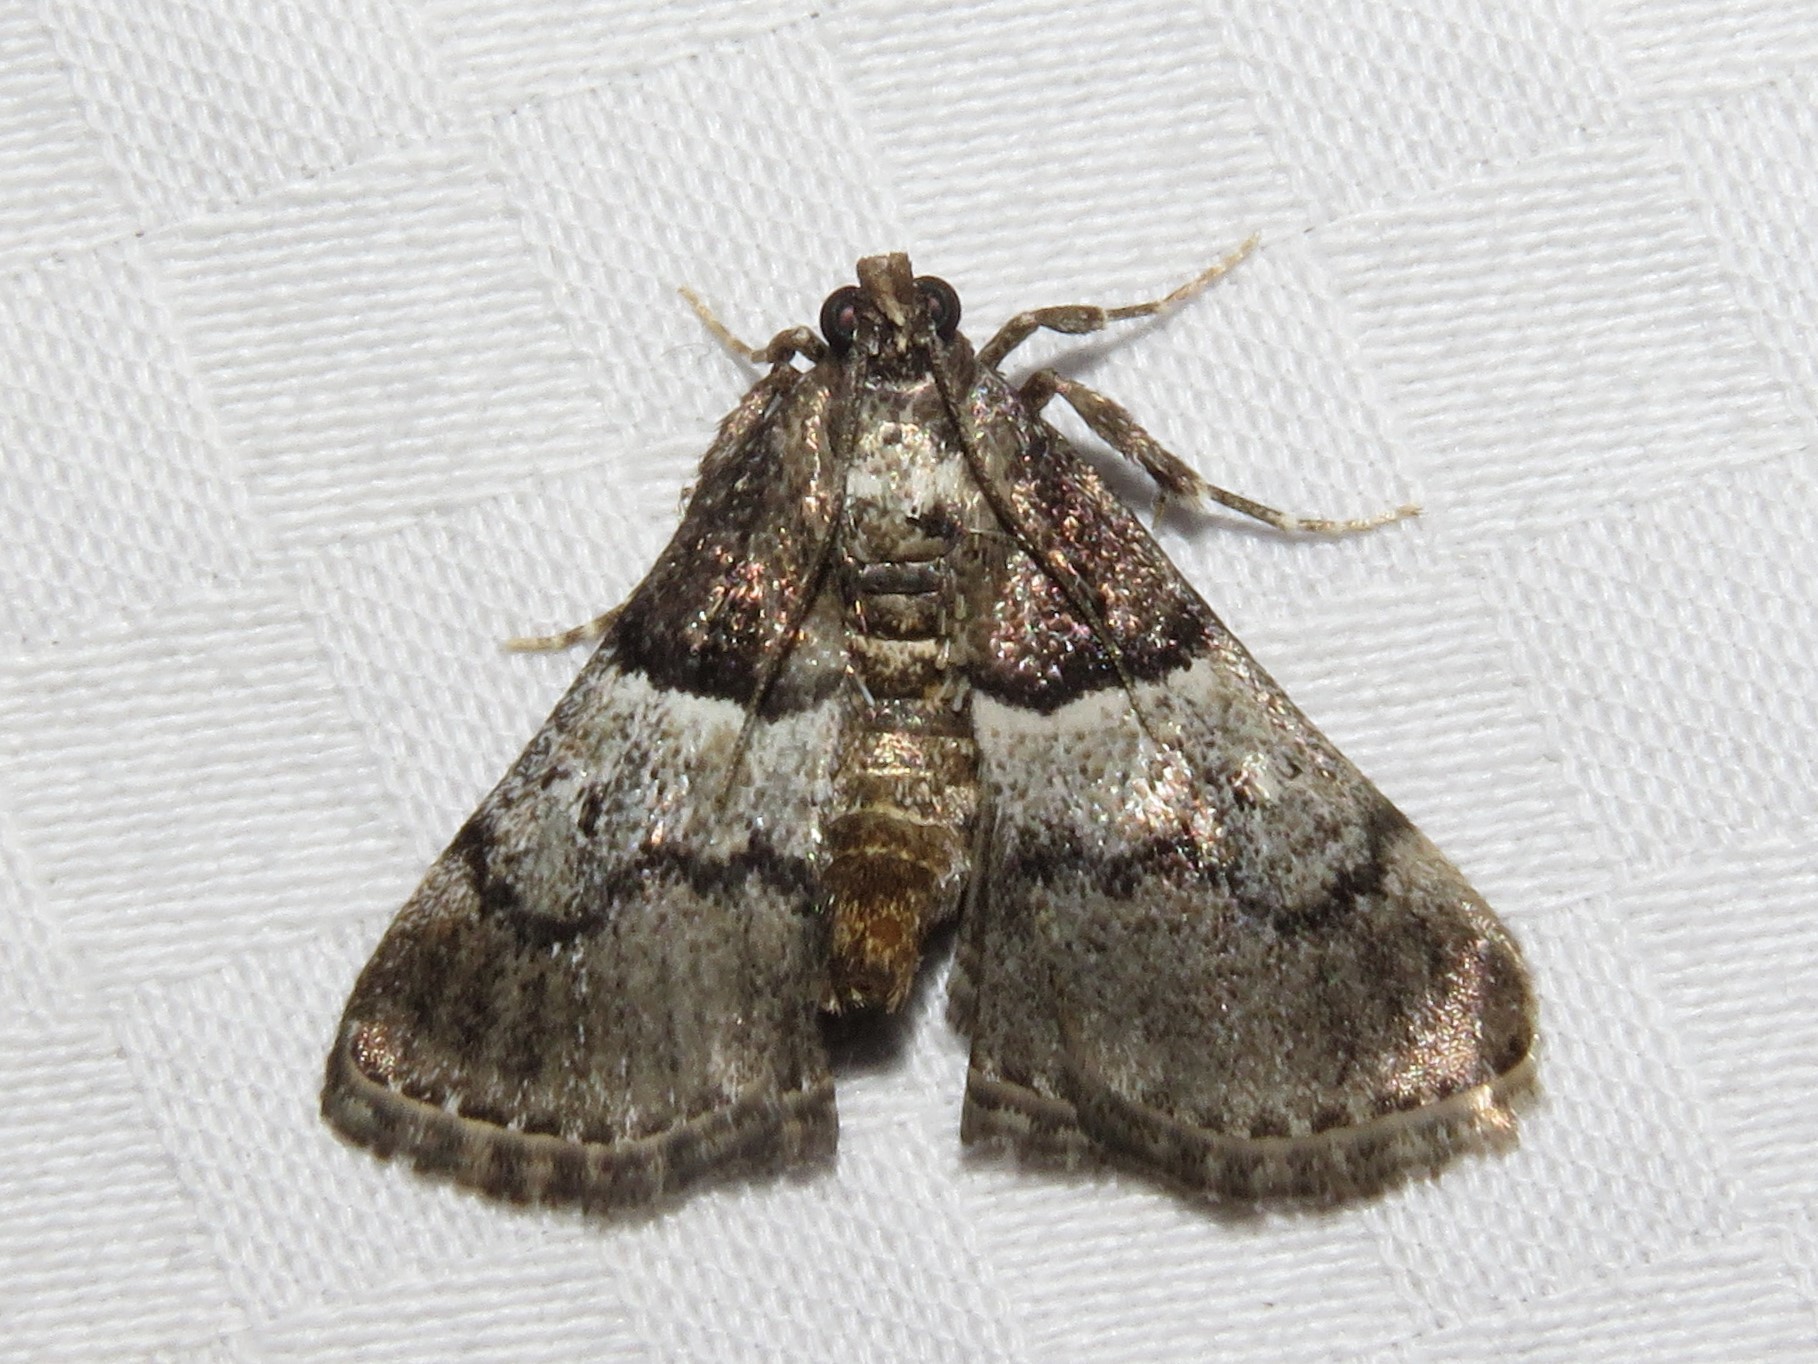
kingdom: Animalia
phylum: Arthropoda
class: Insecta
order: Lepidoptera
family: Pyralidae
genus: Macalla
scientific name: Macalla zelleri
